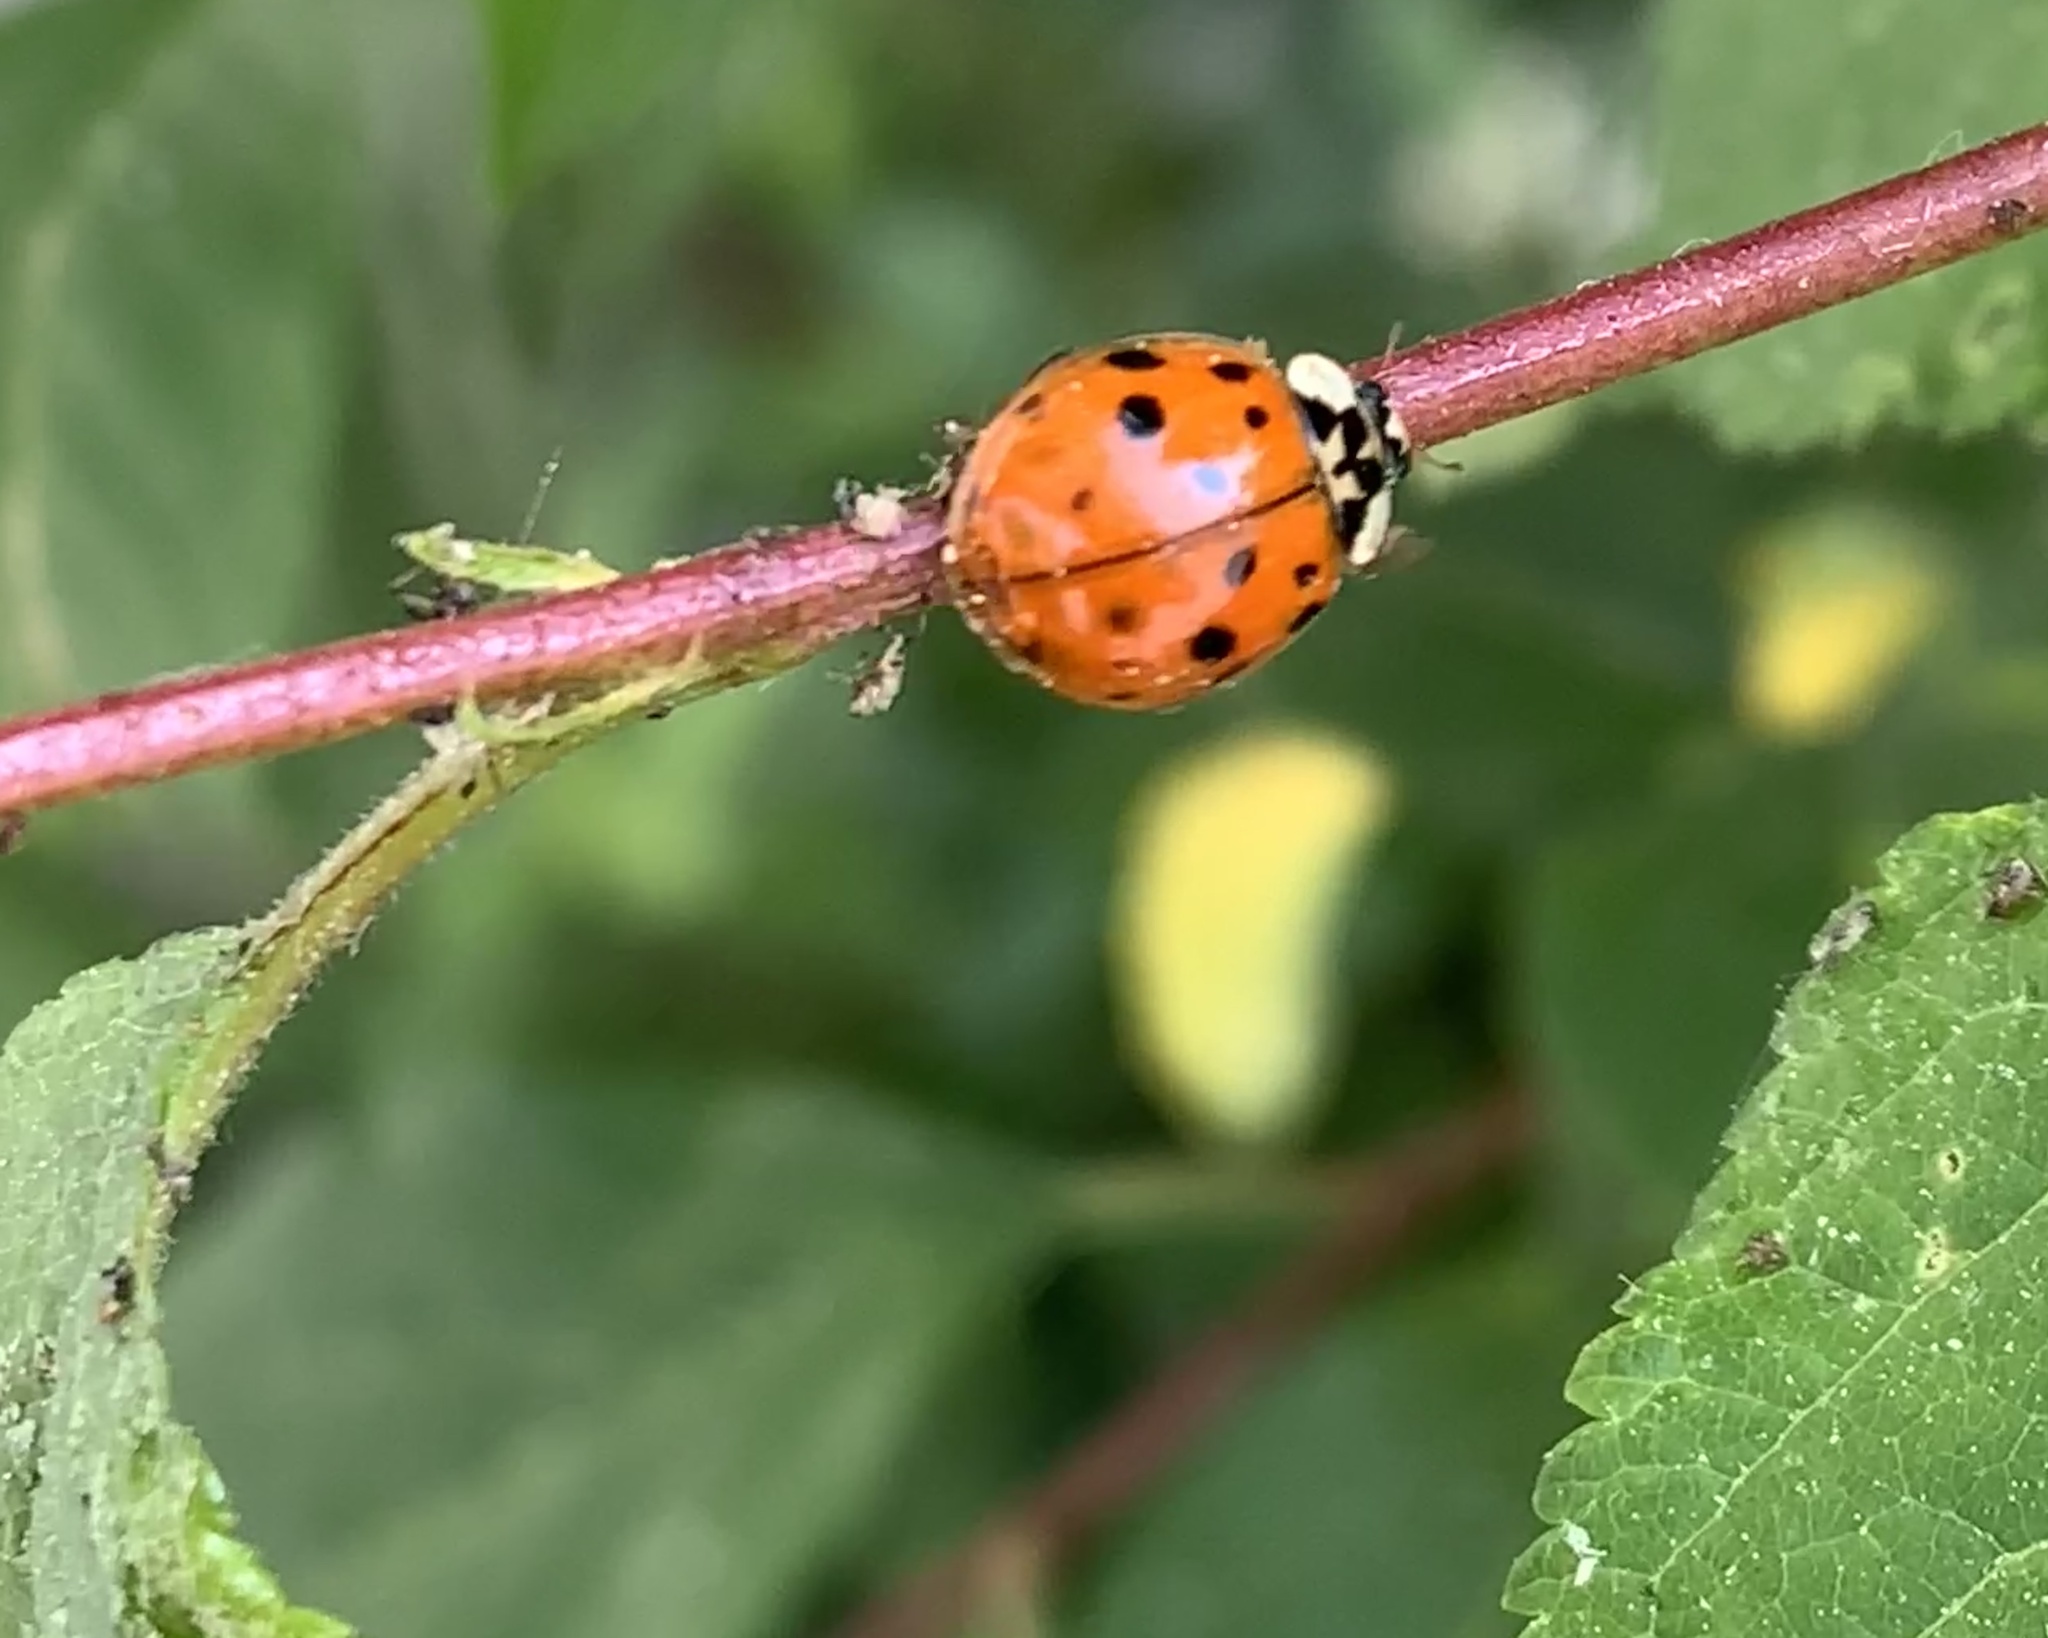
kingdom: Animalia
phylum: Arthropoda
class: Insecta
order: Coleoptera
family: Coccinellidae
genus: Harmonia
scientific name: Harmonia axyridis
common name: Harlequin ladybird
